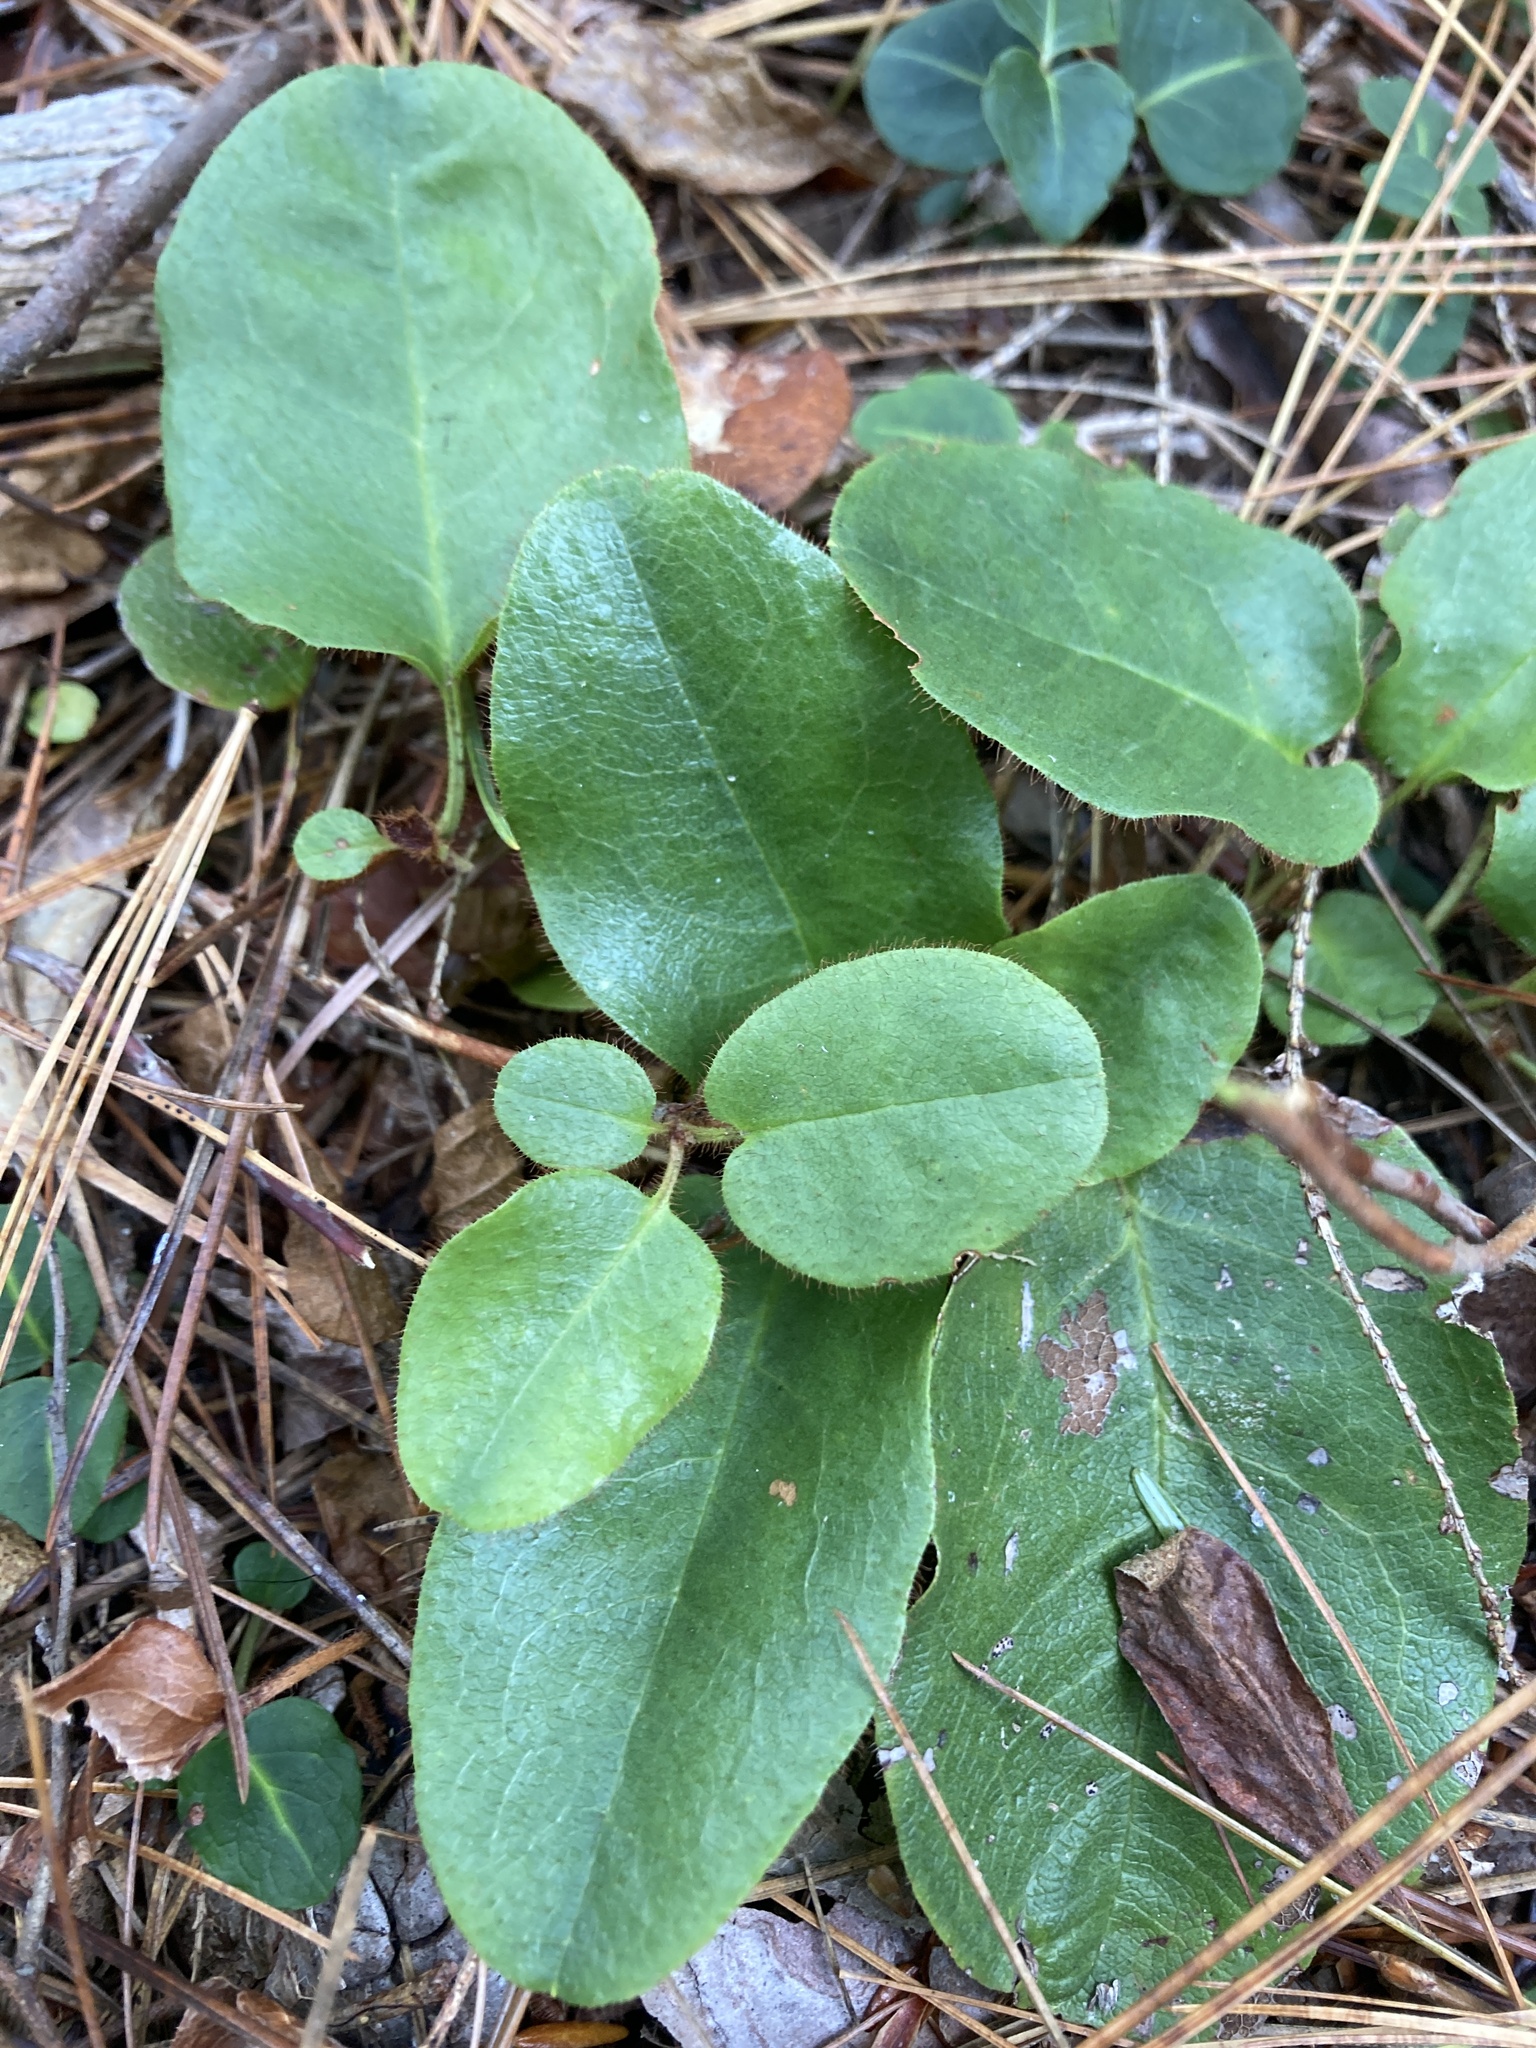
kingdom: Plantae
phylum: Tracheophyta
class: Magnoliopsida
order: Ericales
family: Ericaceae
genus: Epigaea
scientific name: Epigaea repens
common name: Gravelroot
